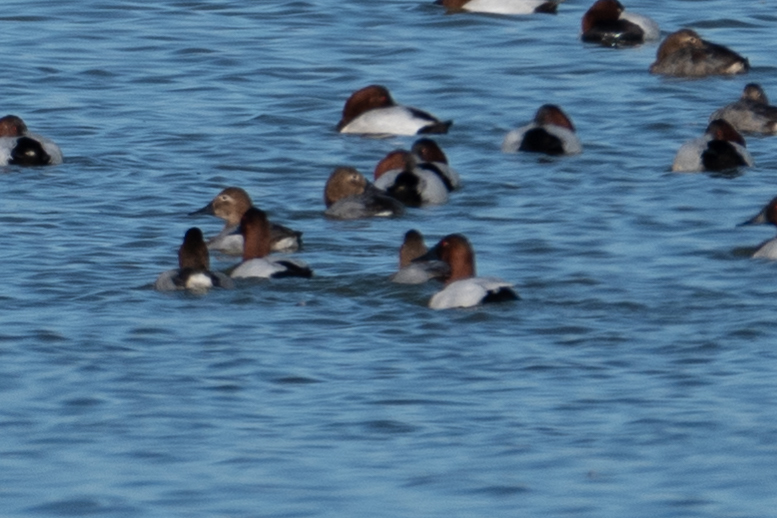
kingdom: Animalia
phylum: Chordata
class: Aves
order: Anseriformes
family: Anatidae
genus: Aythya
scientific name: Aythya valisineria
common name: Canvasback
